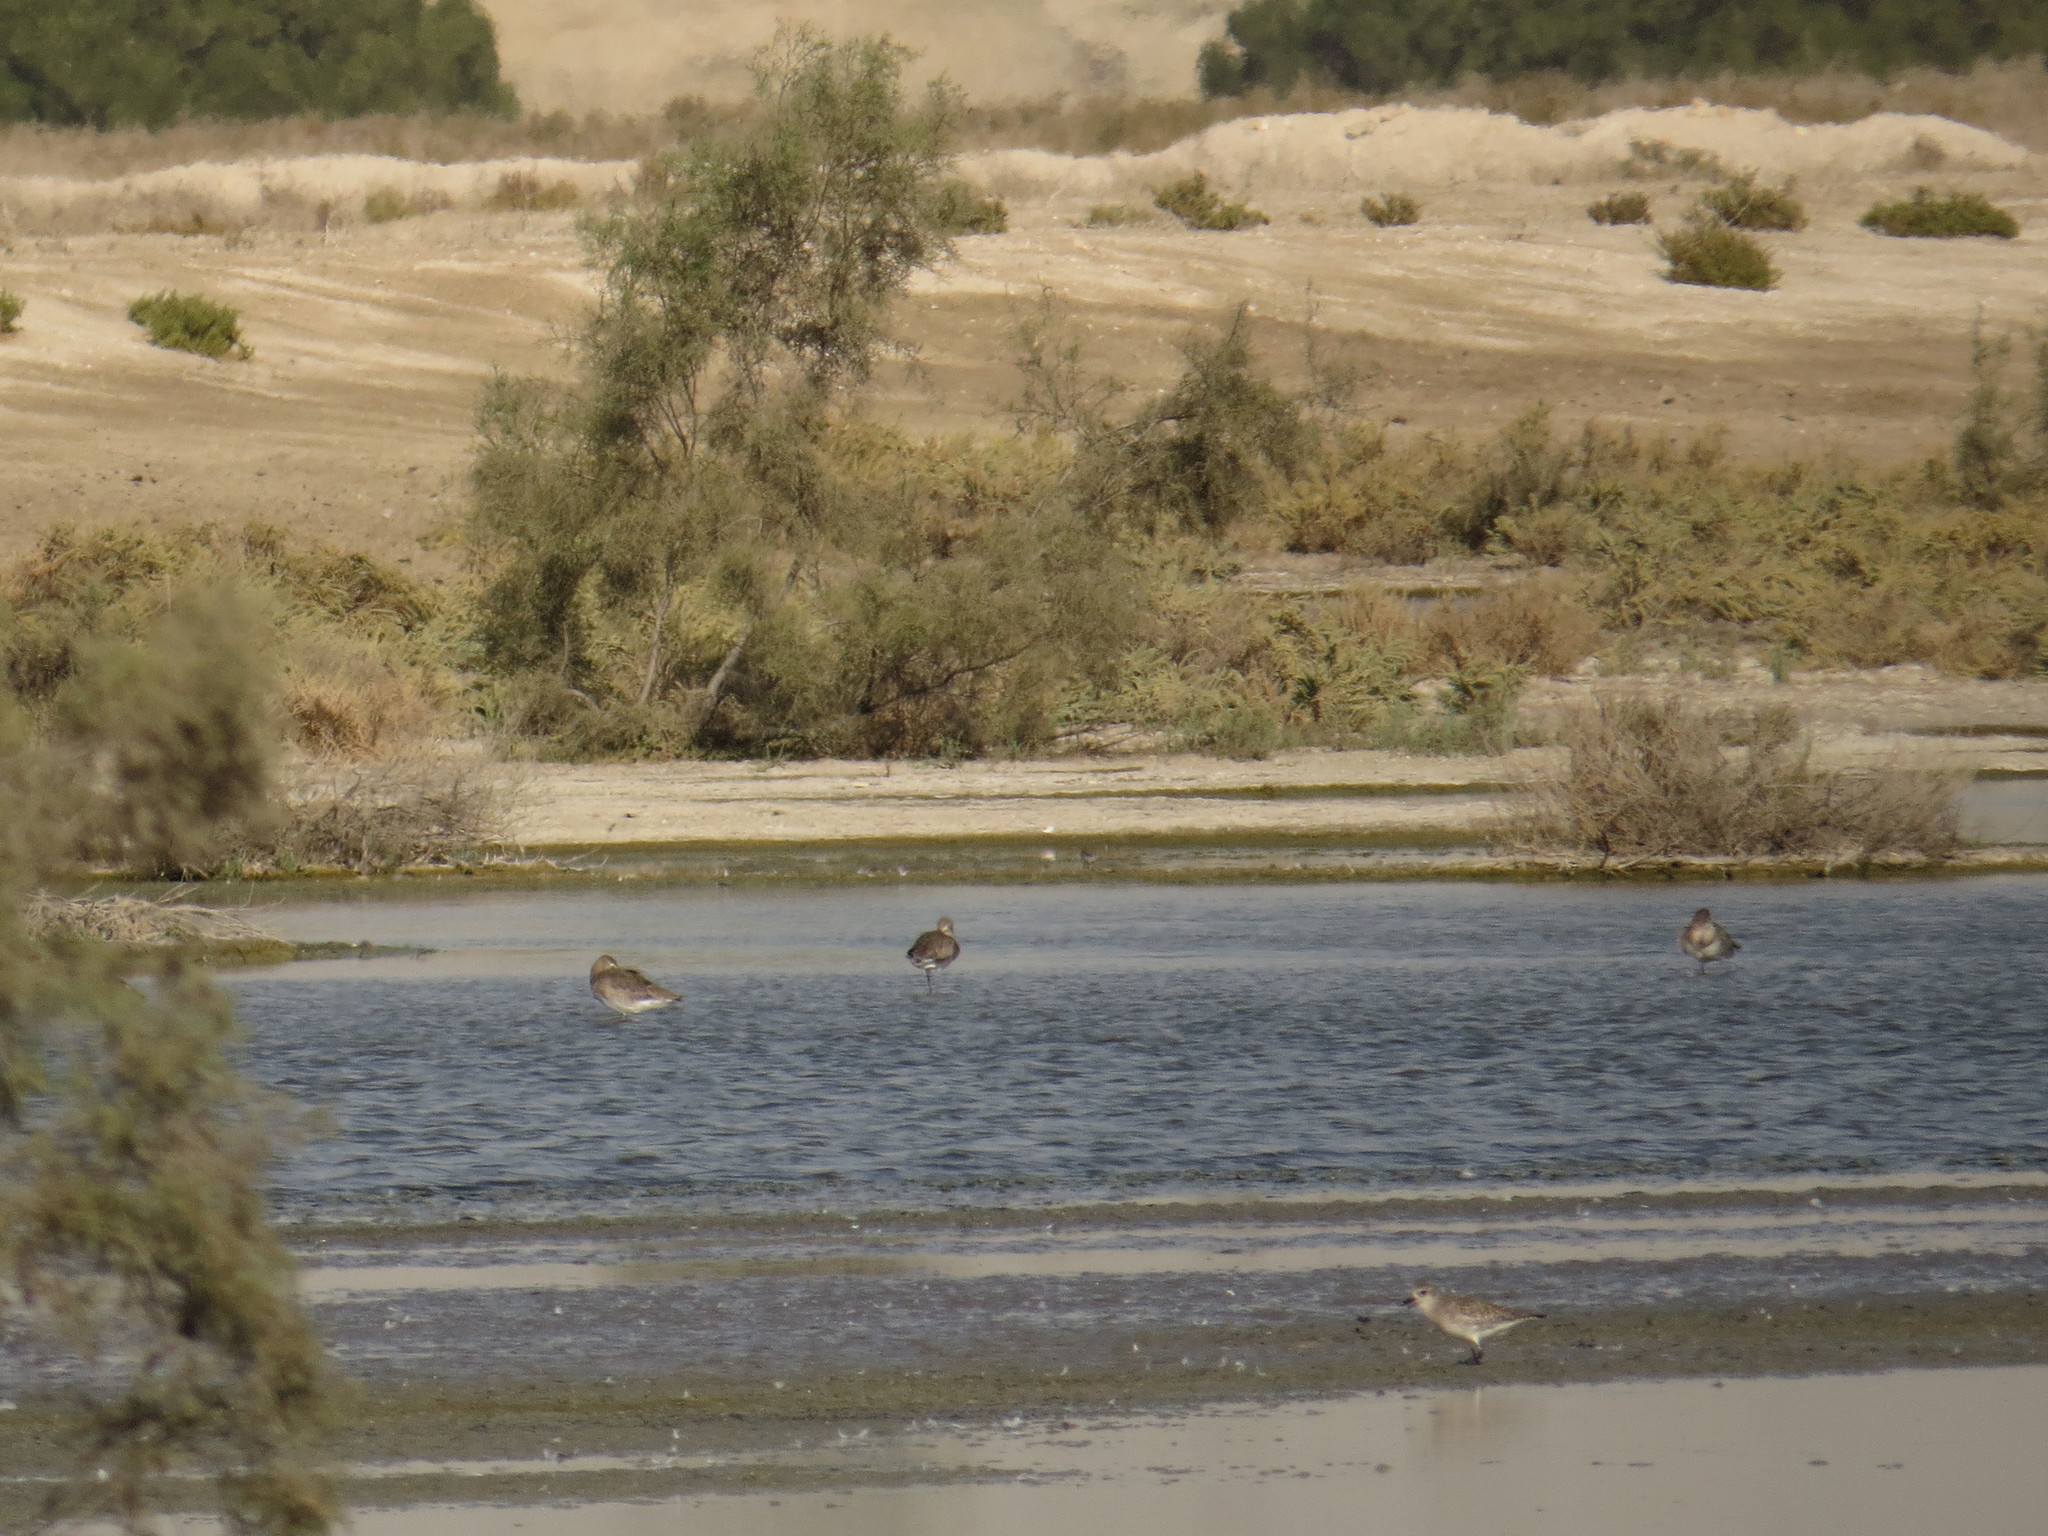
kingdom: Animalia
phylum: Chordata
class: Aves
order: Charadriiformes
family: Scolopacidae
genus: Limosa
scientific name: Limosa limosa
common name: Black-tailed godwit
